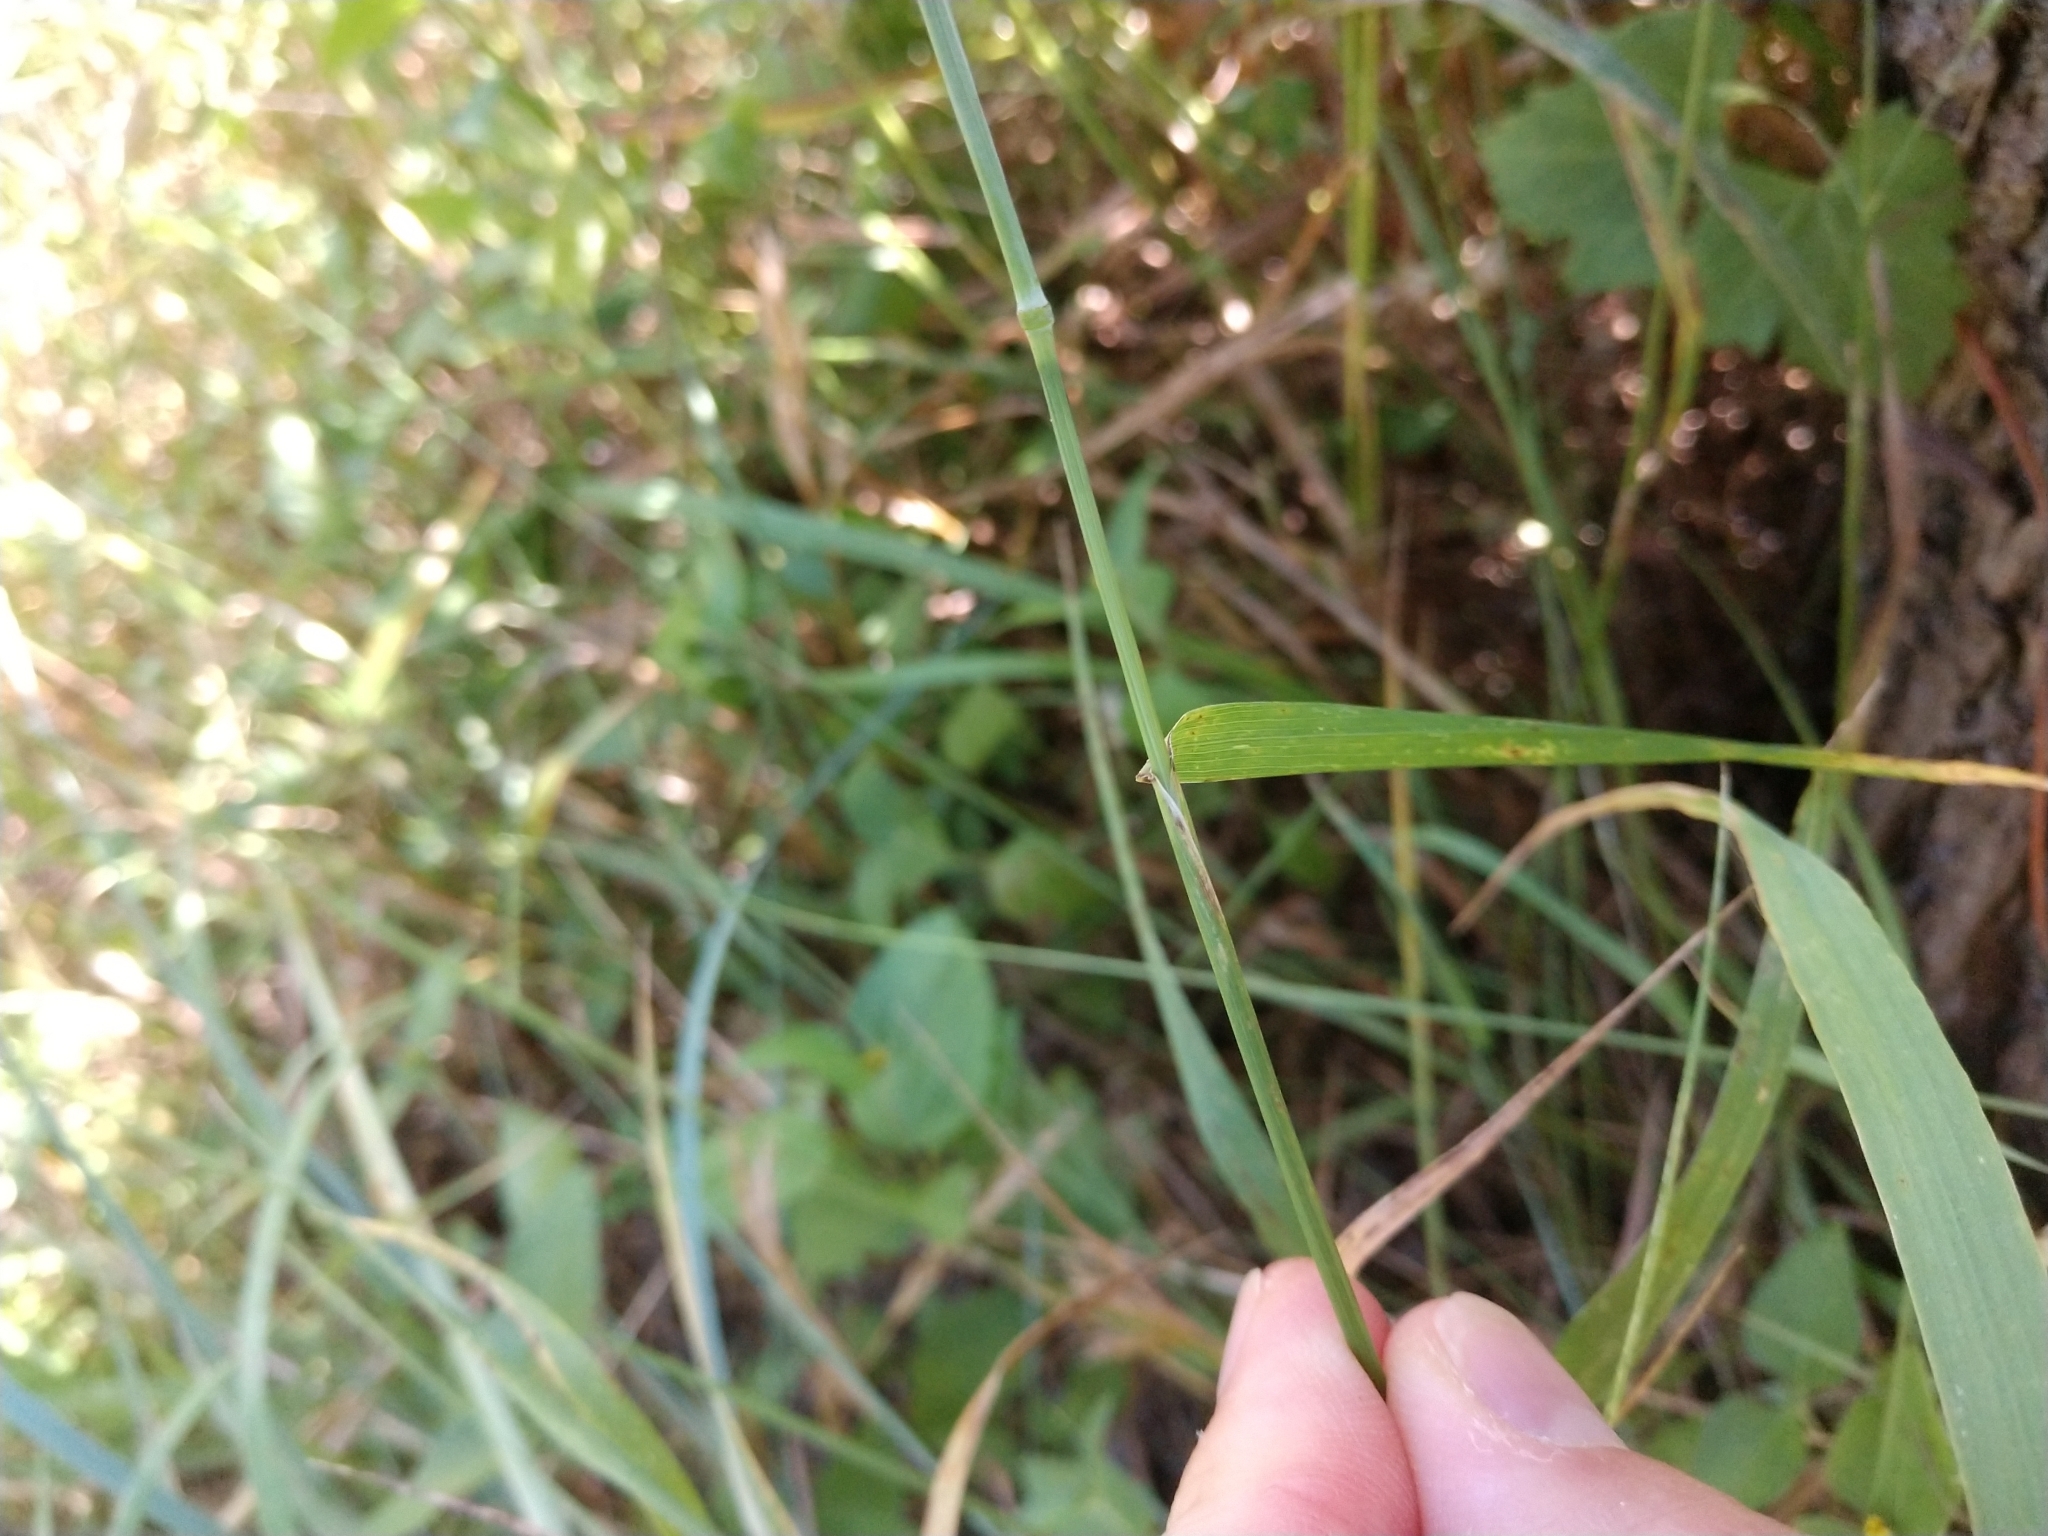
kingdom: Plantae
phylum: Tracheophyta
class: Liliopsida
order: Poales
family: Poaceae
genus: Elymus
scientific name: Elymus virginicus
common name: Common eastern wildrye
